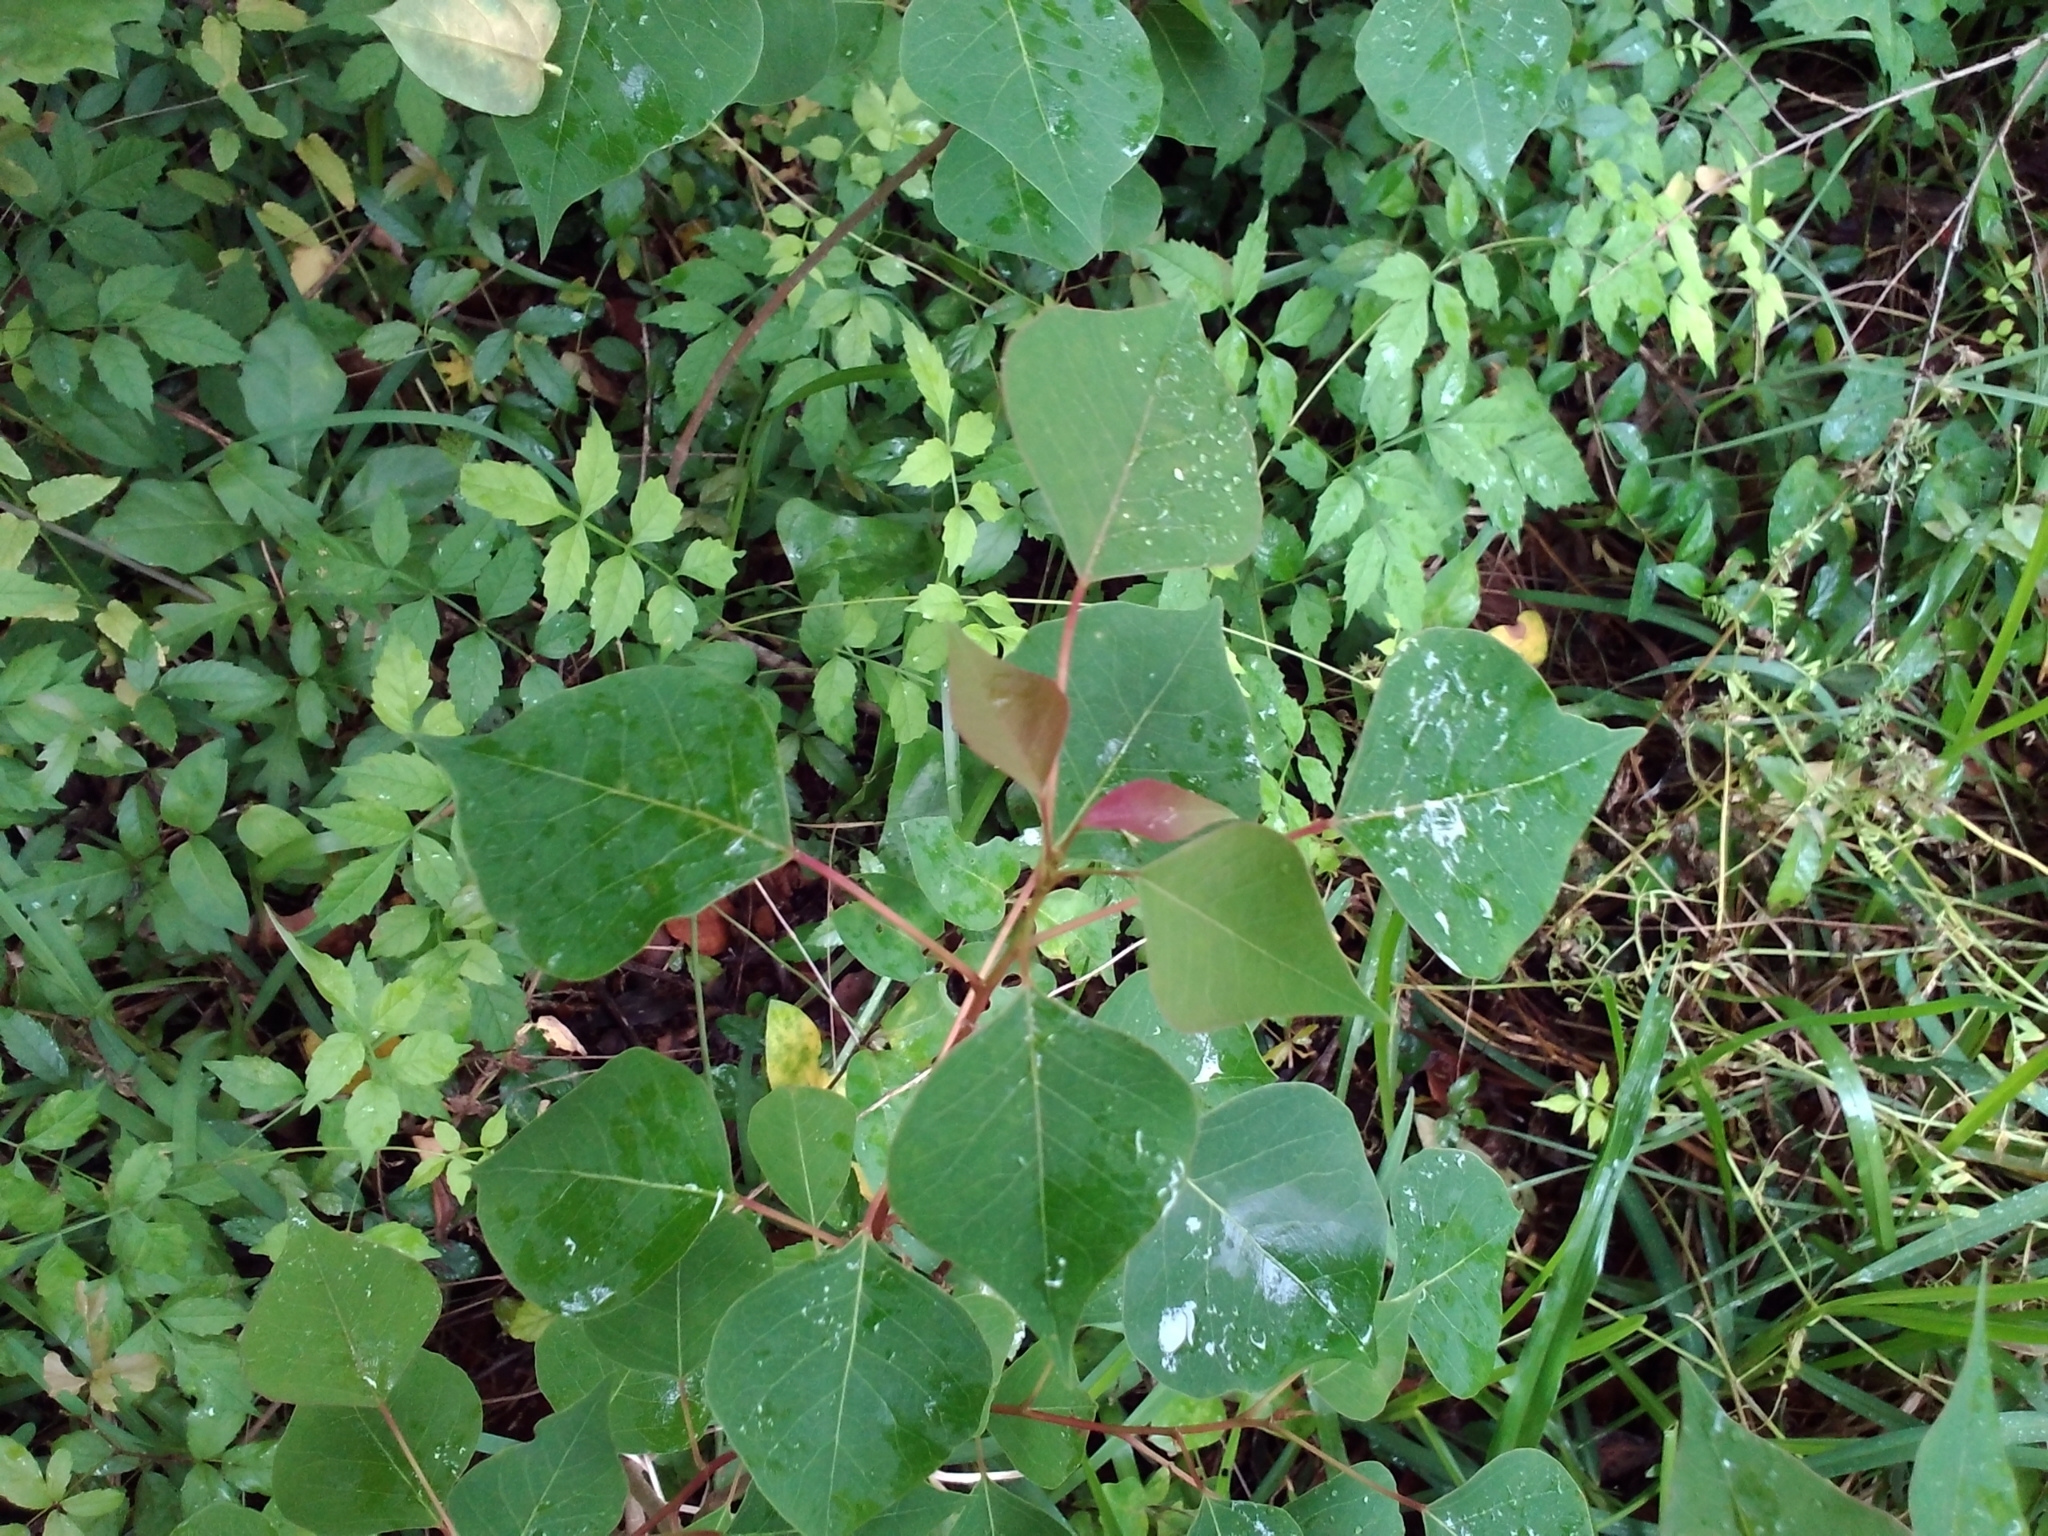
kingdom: Plantae
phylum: Tracheophyta
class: Magnoliopsida
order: Malpighiales
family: Euphorbiaceae
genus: Triadica
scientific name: Triadica sebifera
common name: Chinese tallow
